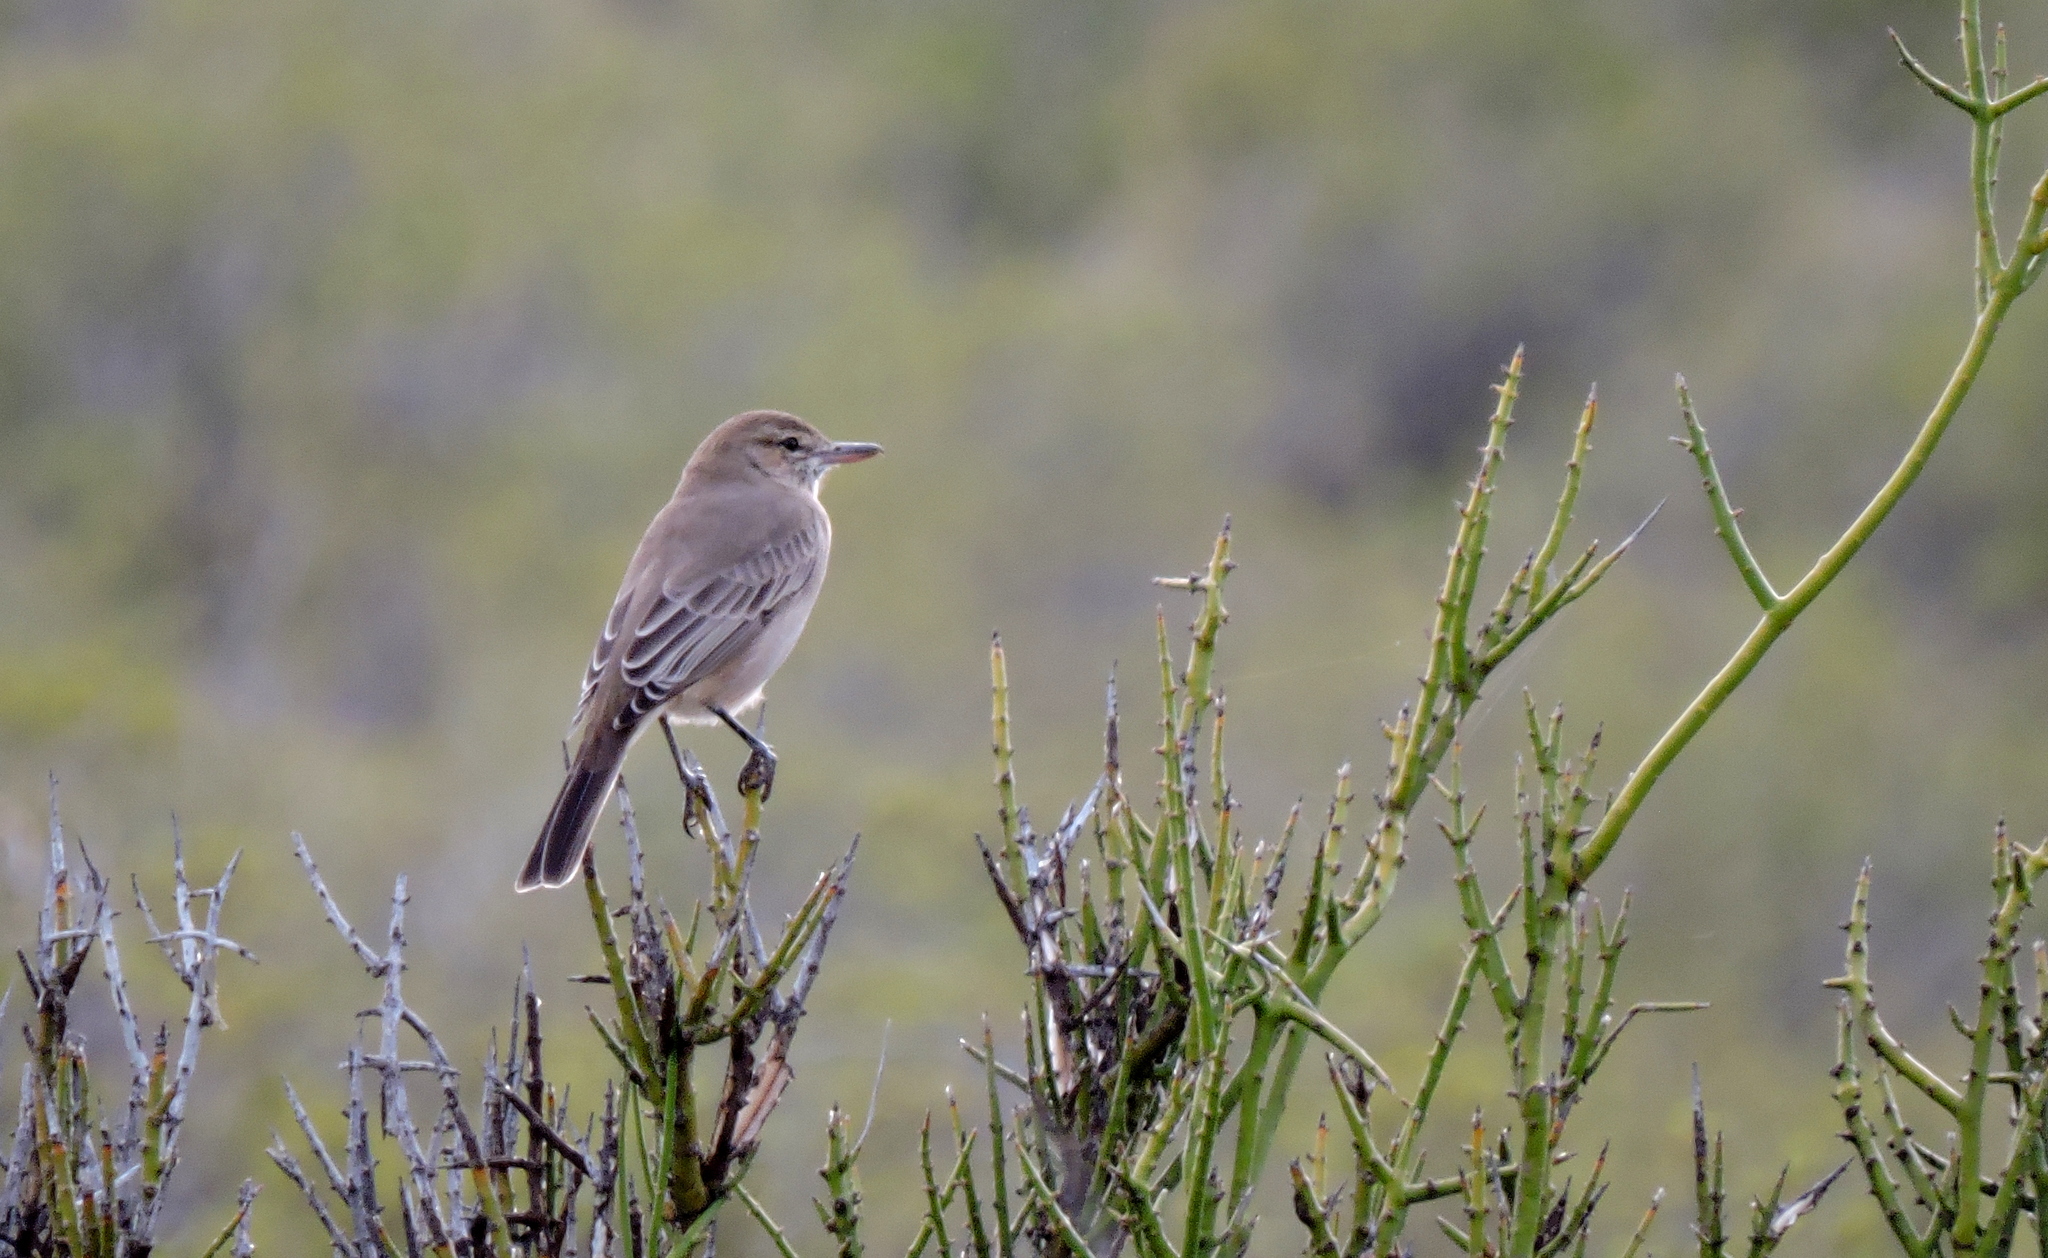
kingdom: Animalia
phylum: Chordata
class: Aves
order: Passeriformes
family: Tyrannidae
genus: Agriornis
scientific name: Agriornis micropterus
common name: Grey-bellied shrike-tyrant
